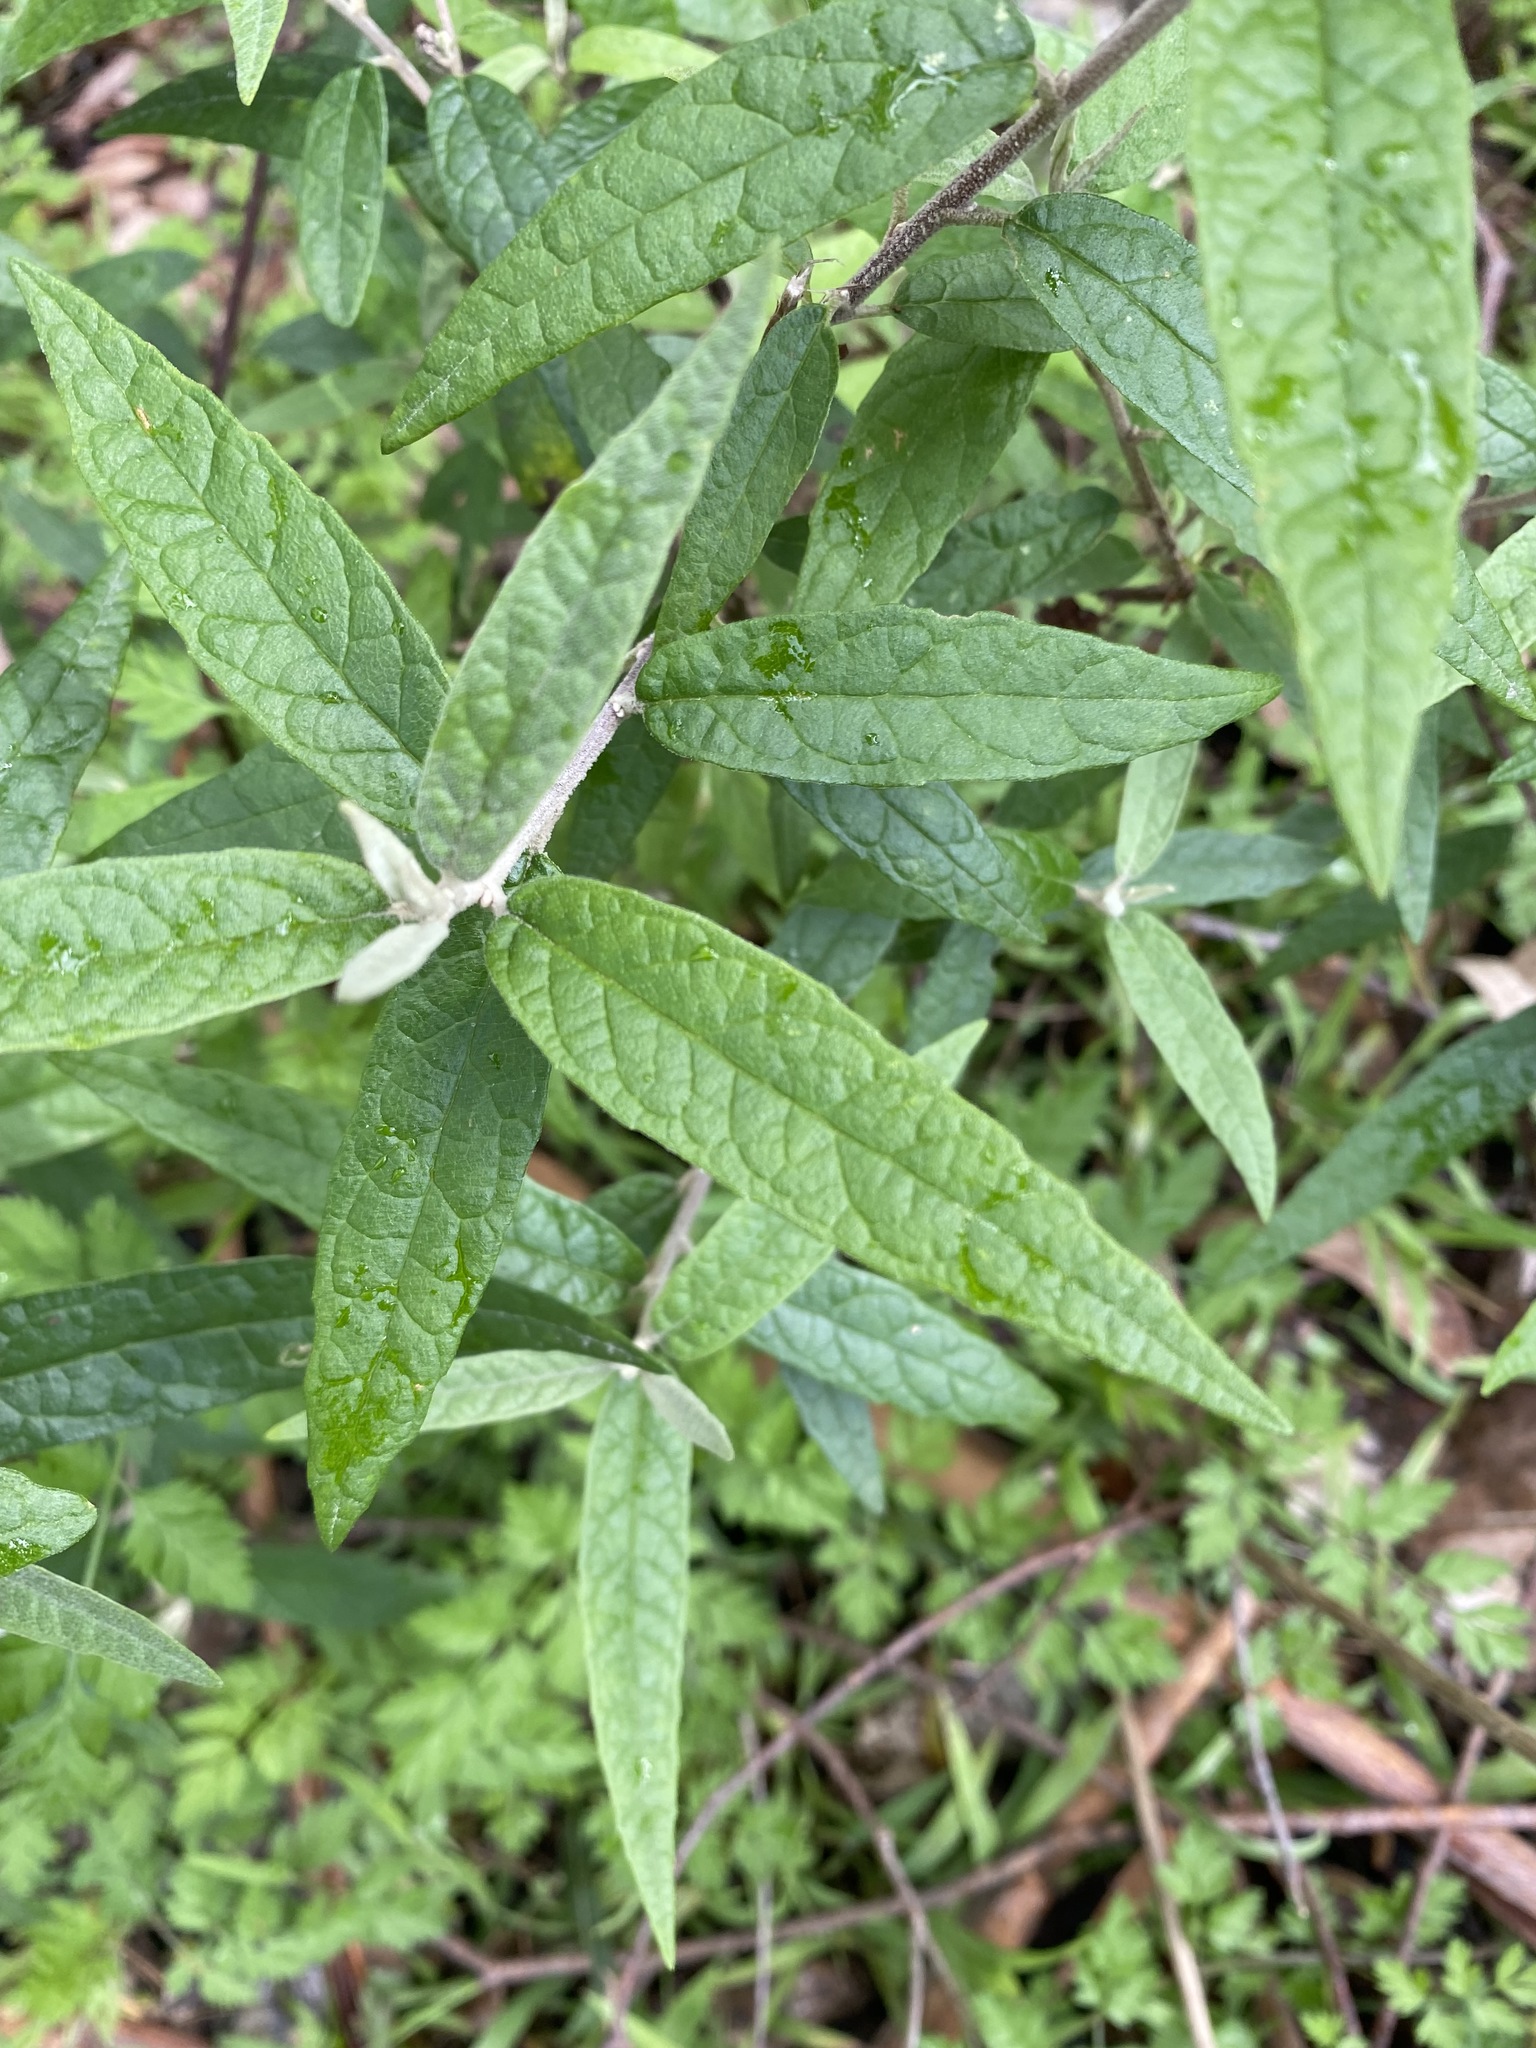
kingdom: Plantae
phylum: Tracheophyta
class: Magnoliopsida
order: Asterales
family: Asteraceae
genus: Olearia
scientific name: Olearia lirata
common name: Dusty daisybush
